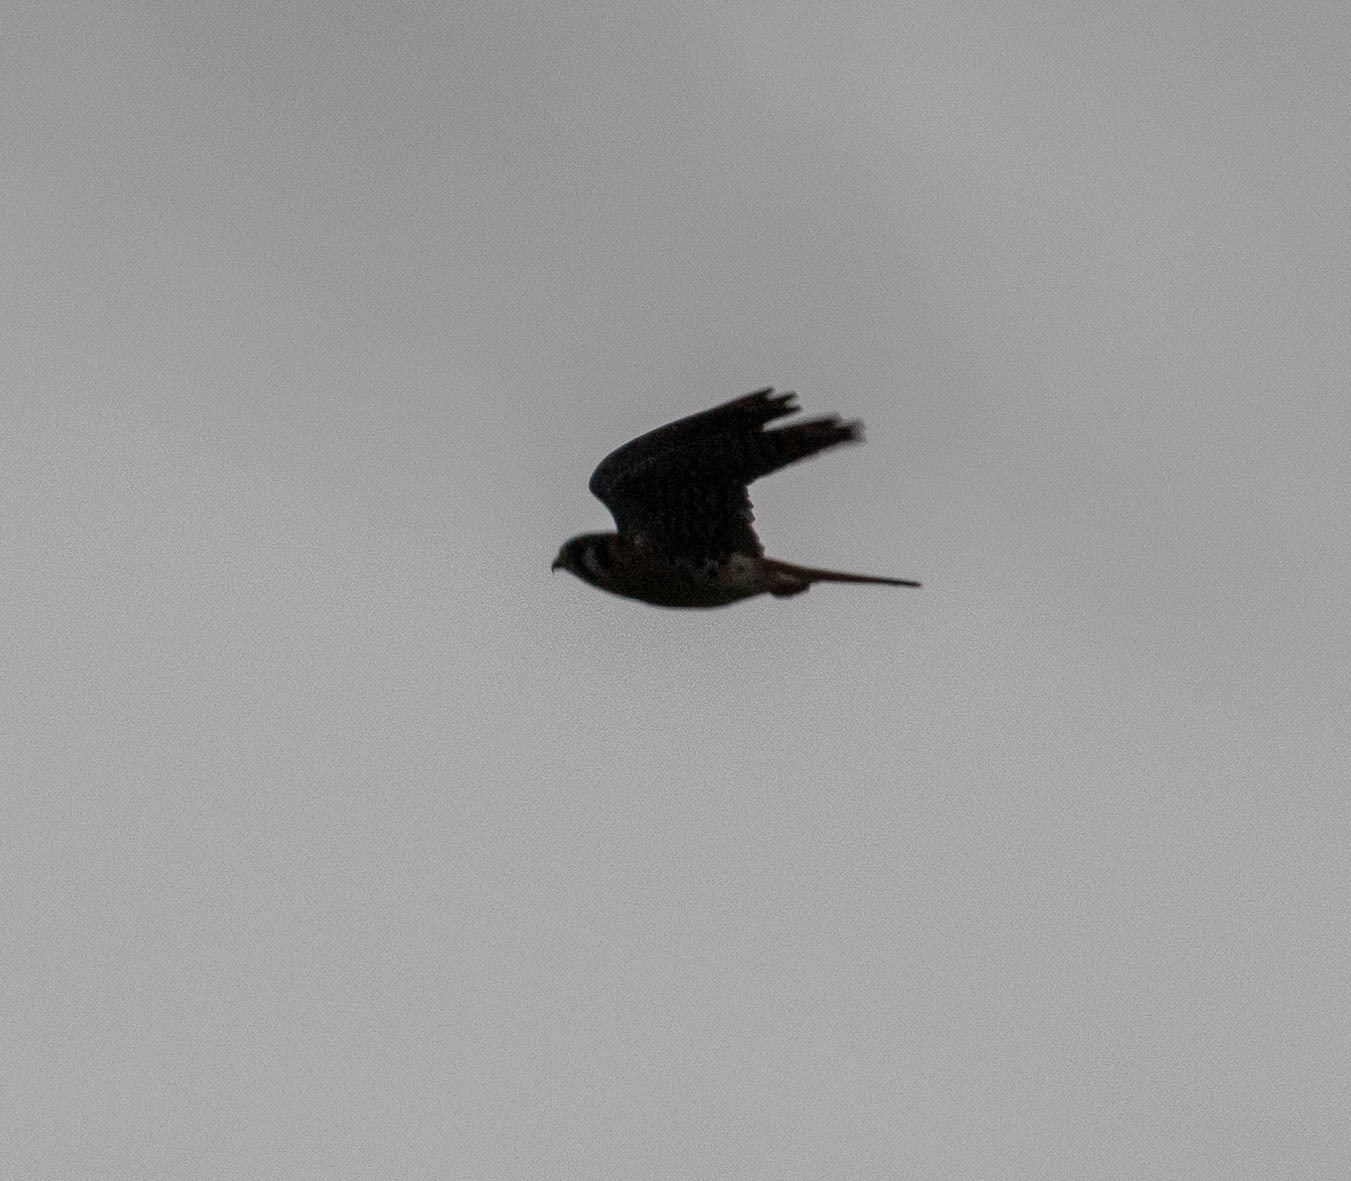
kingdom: Animalia
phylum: Chordata
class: Aves
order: Falconiformes
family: Falconidae
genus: Falco
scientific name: Falco sparverius
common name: American kestrel
